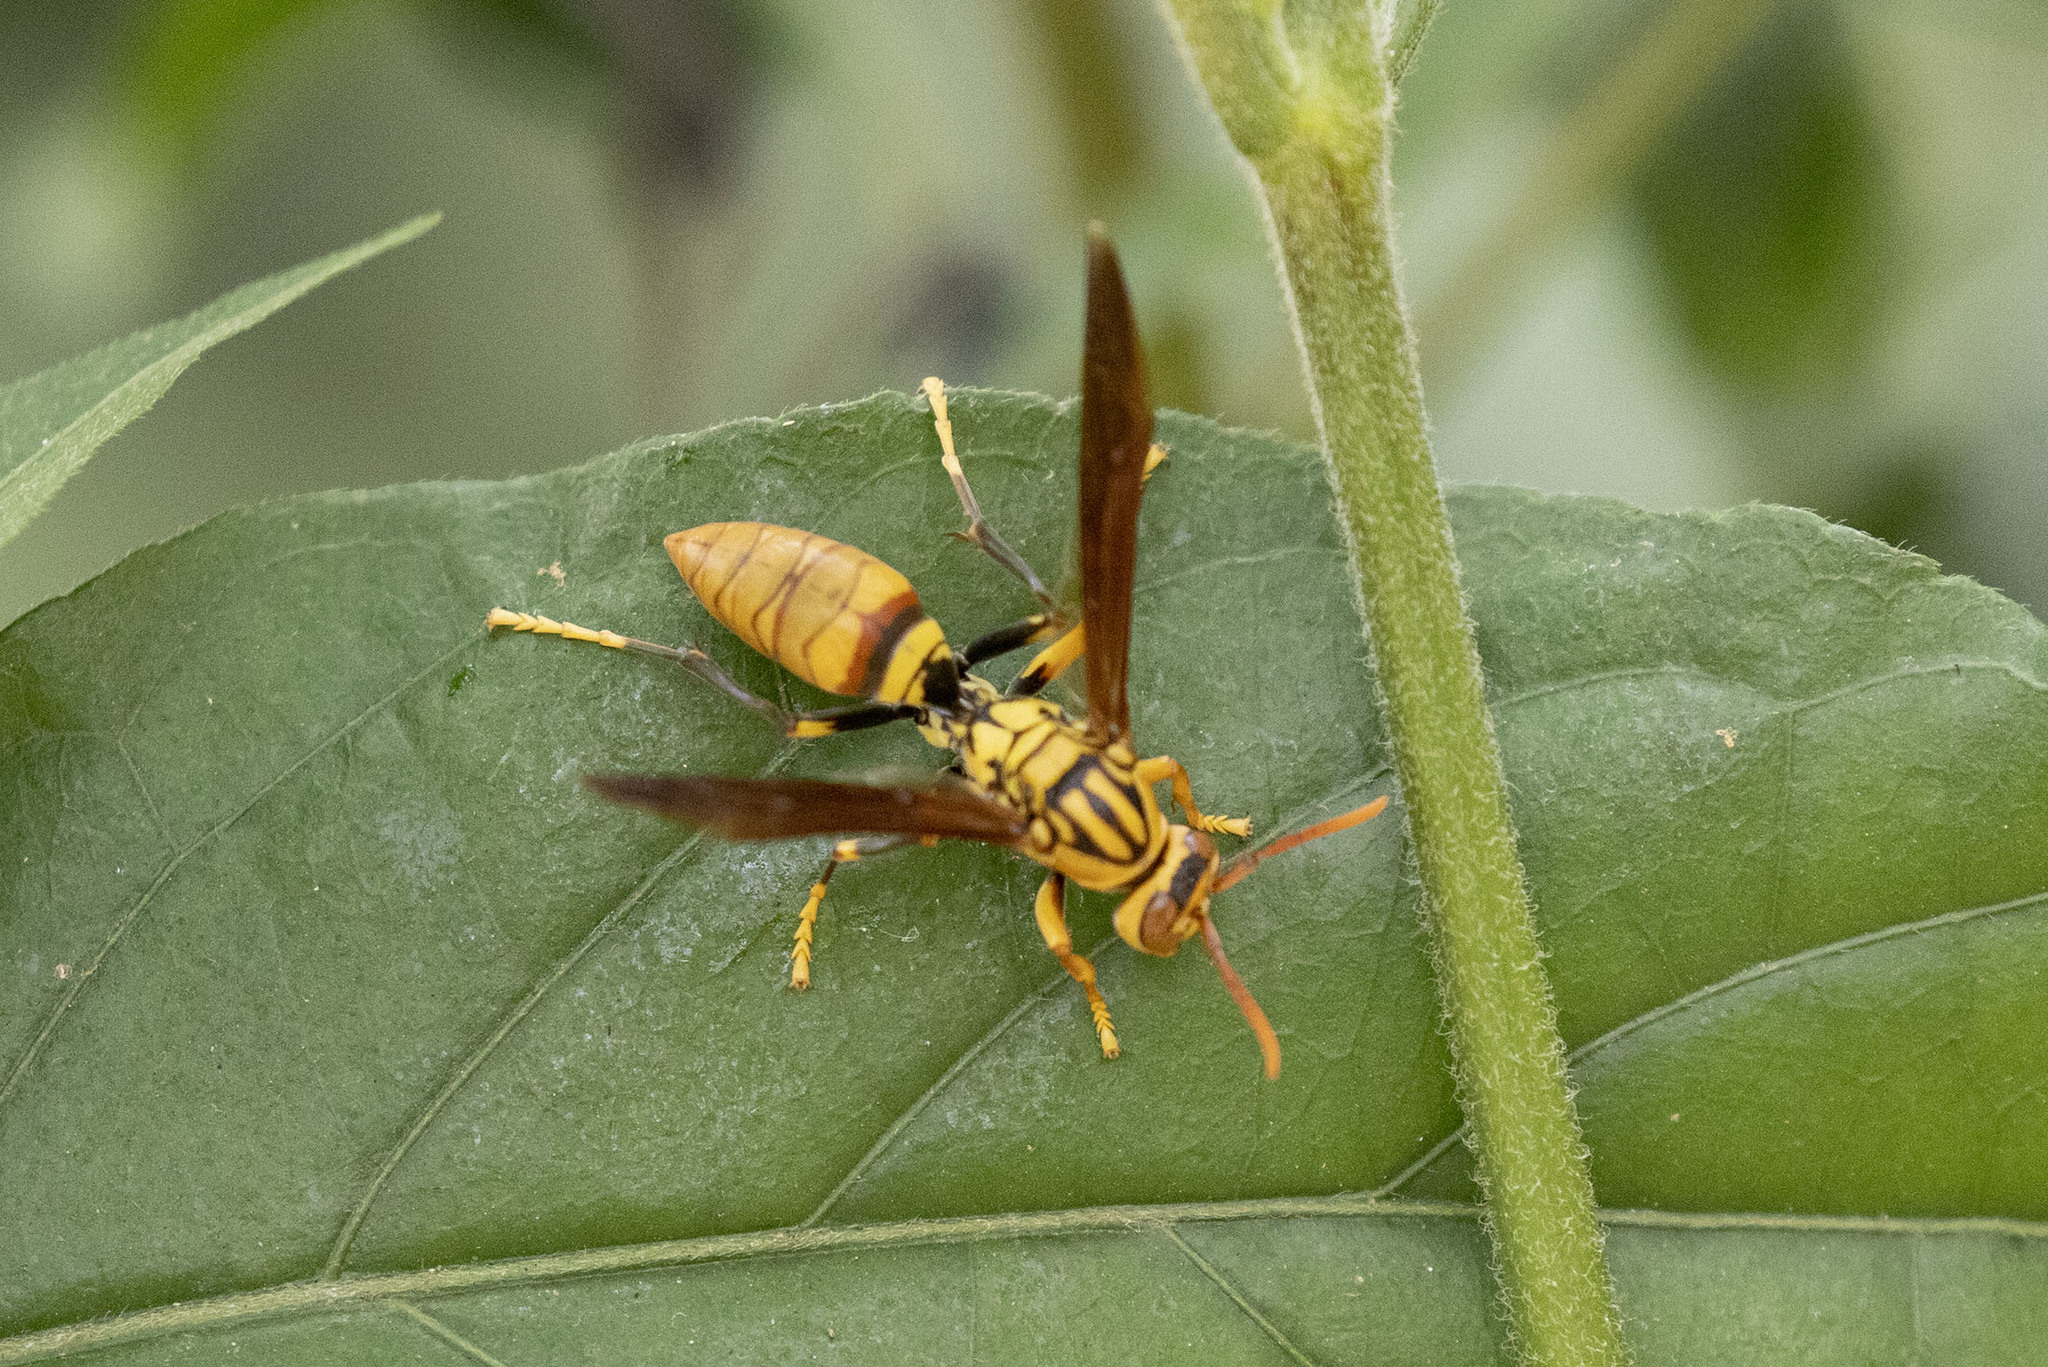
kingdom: Animalia
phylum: Arthropoda
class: Insecta
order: Hymenoptera
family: Eumenidae
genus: Polistes
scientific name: Polistes olivaceus
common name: Paper wasp
